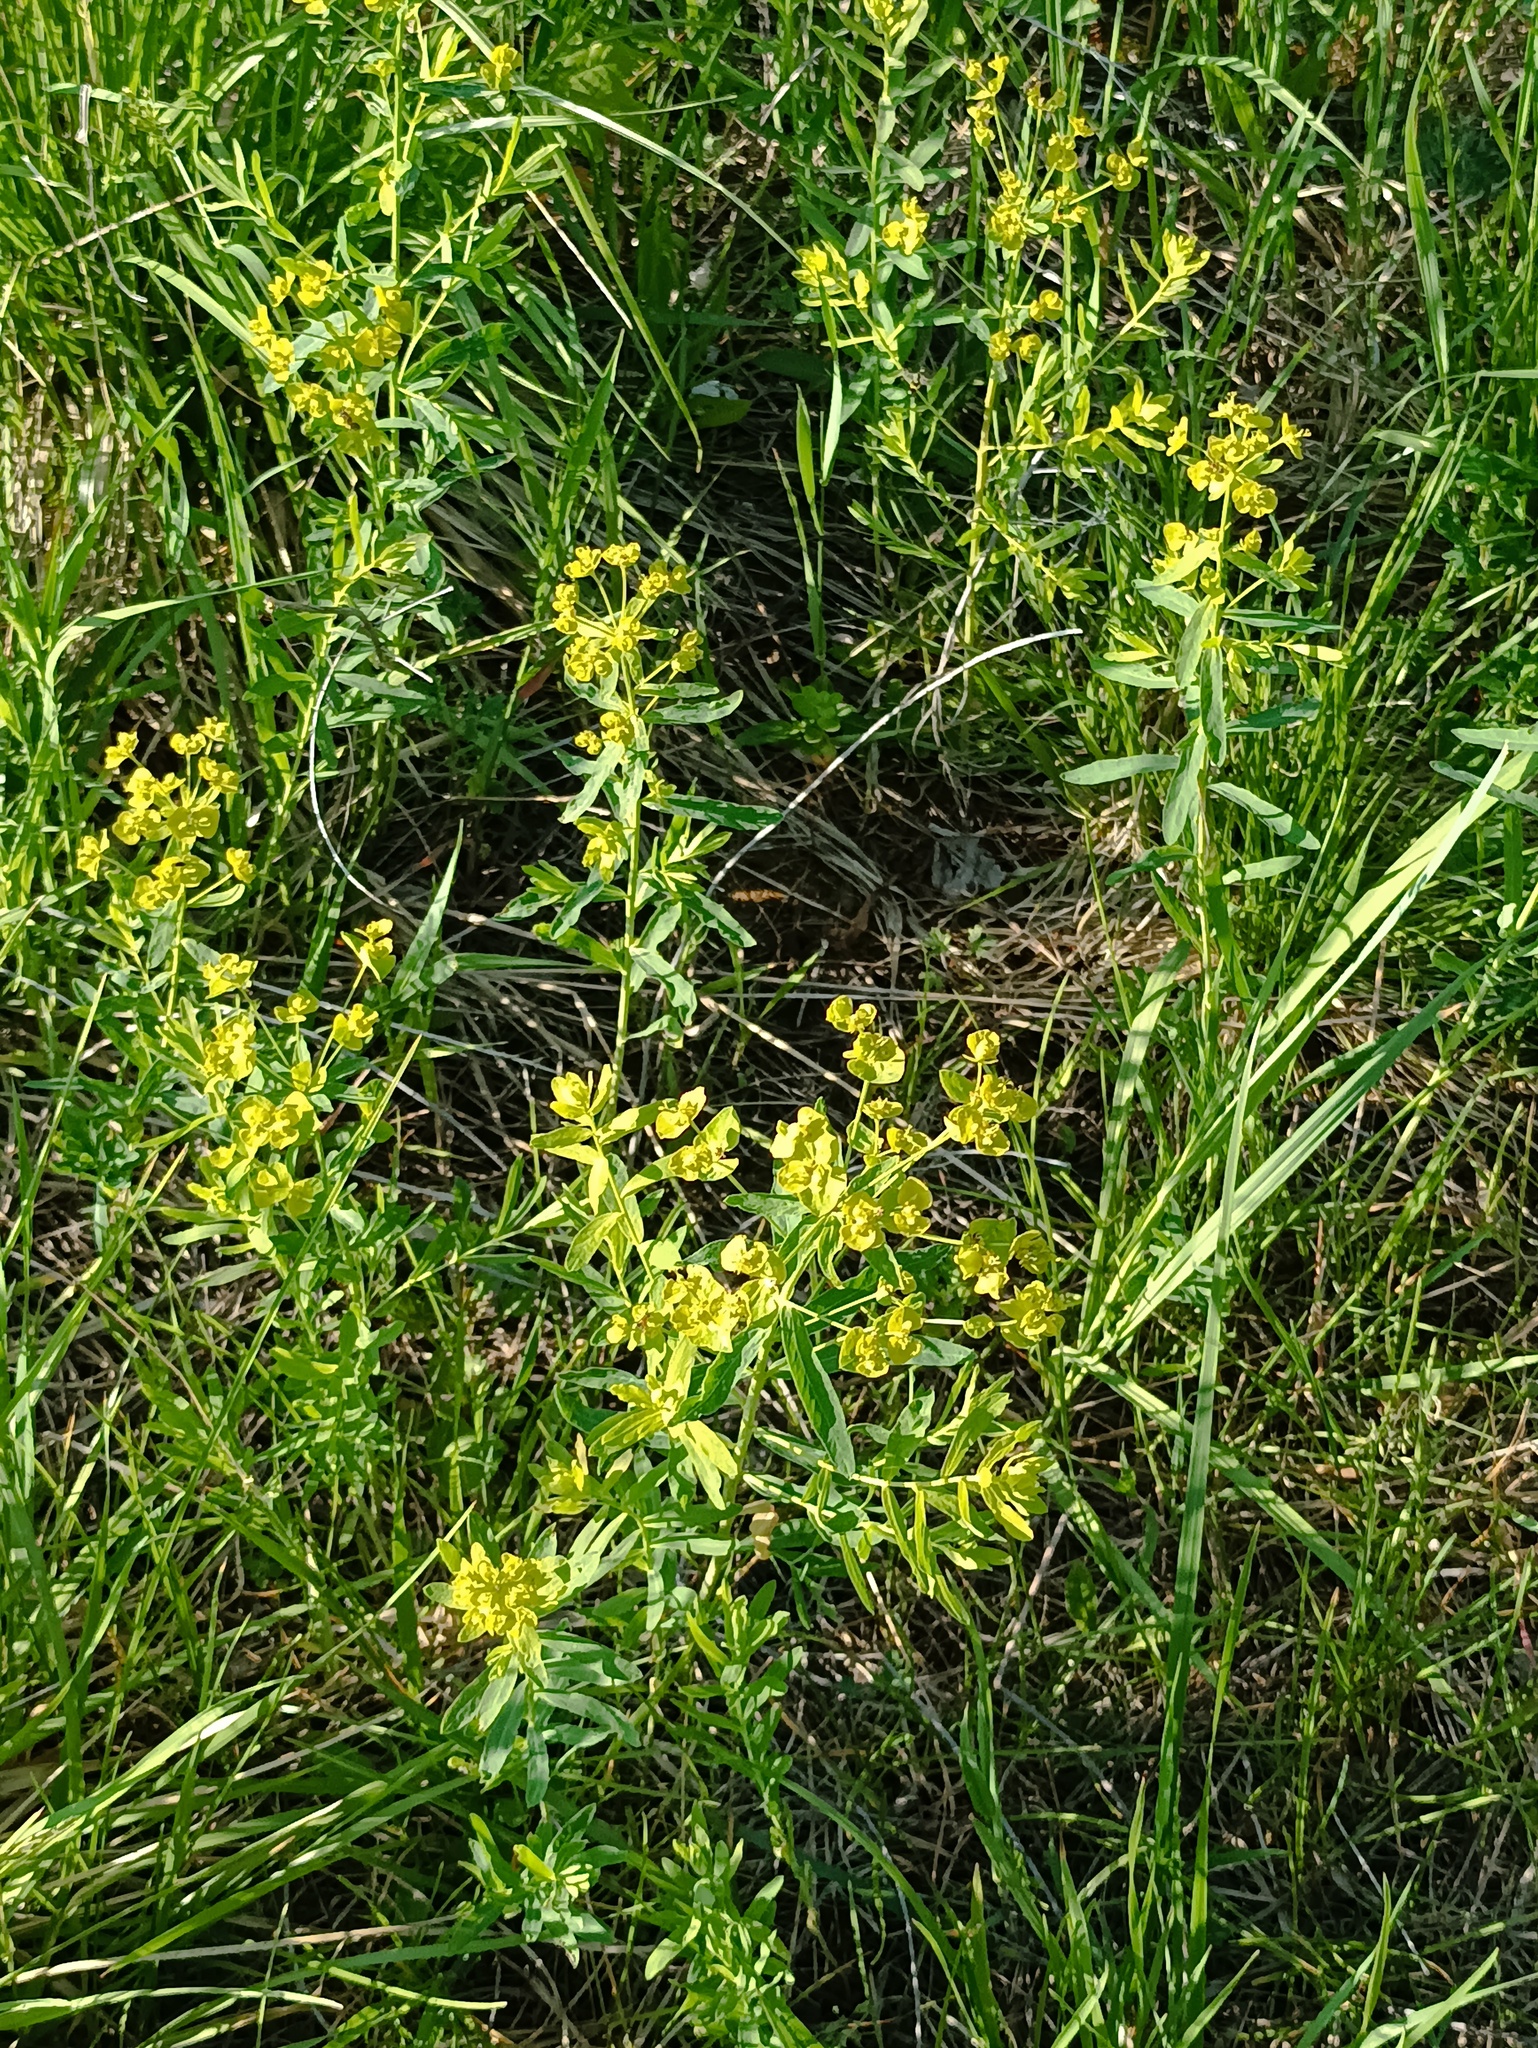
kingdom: Plantae
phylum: Tracheophyta
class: Magnoliopsida
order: Malpighiales
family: Euphorbiaceae
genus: Euphorbia
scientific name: Euphorbia virgata
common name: Leafy spurge
